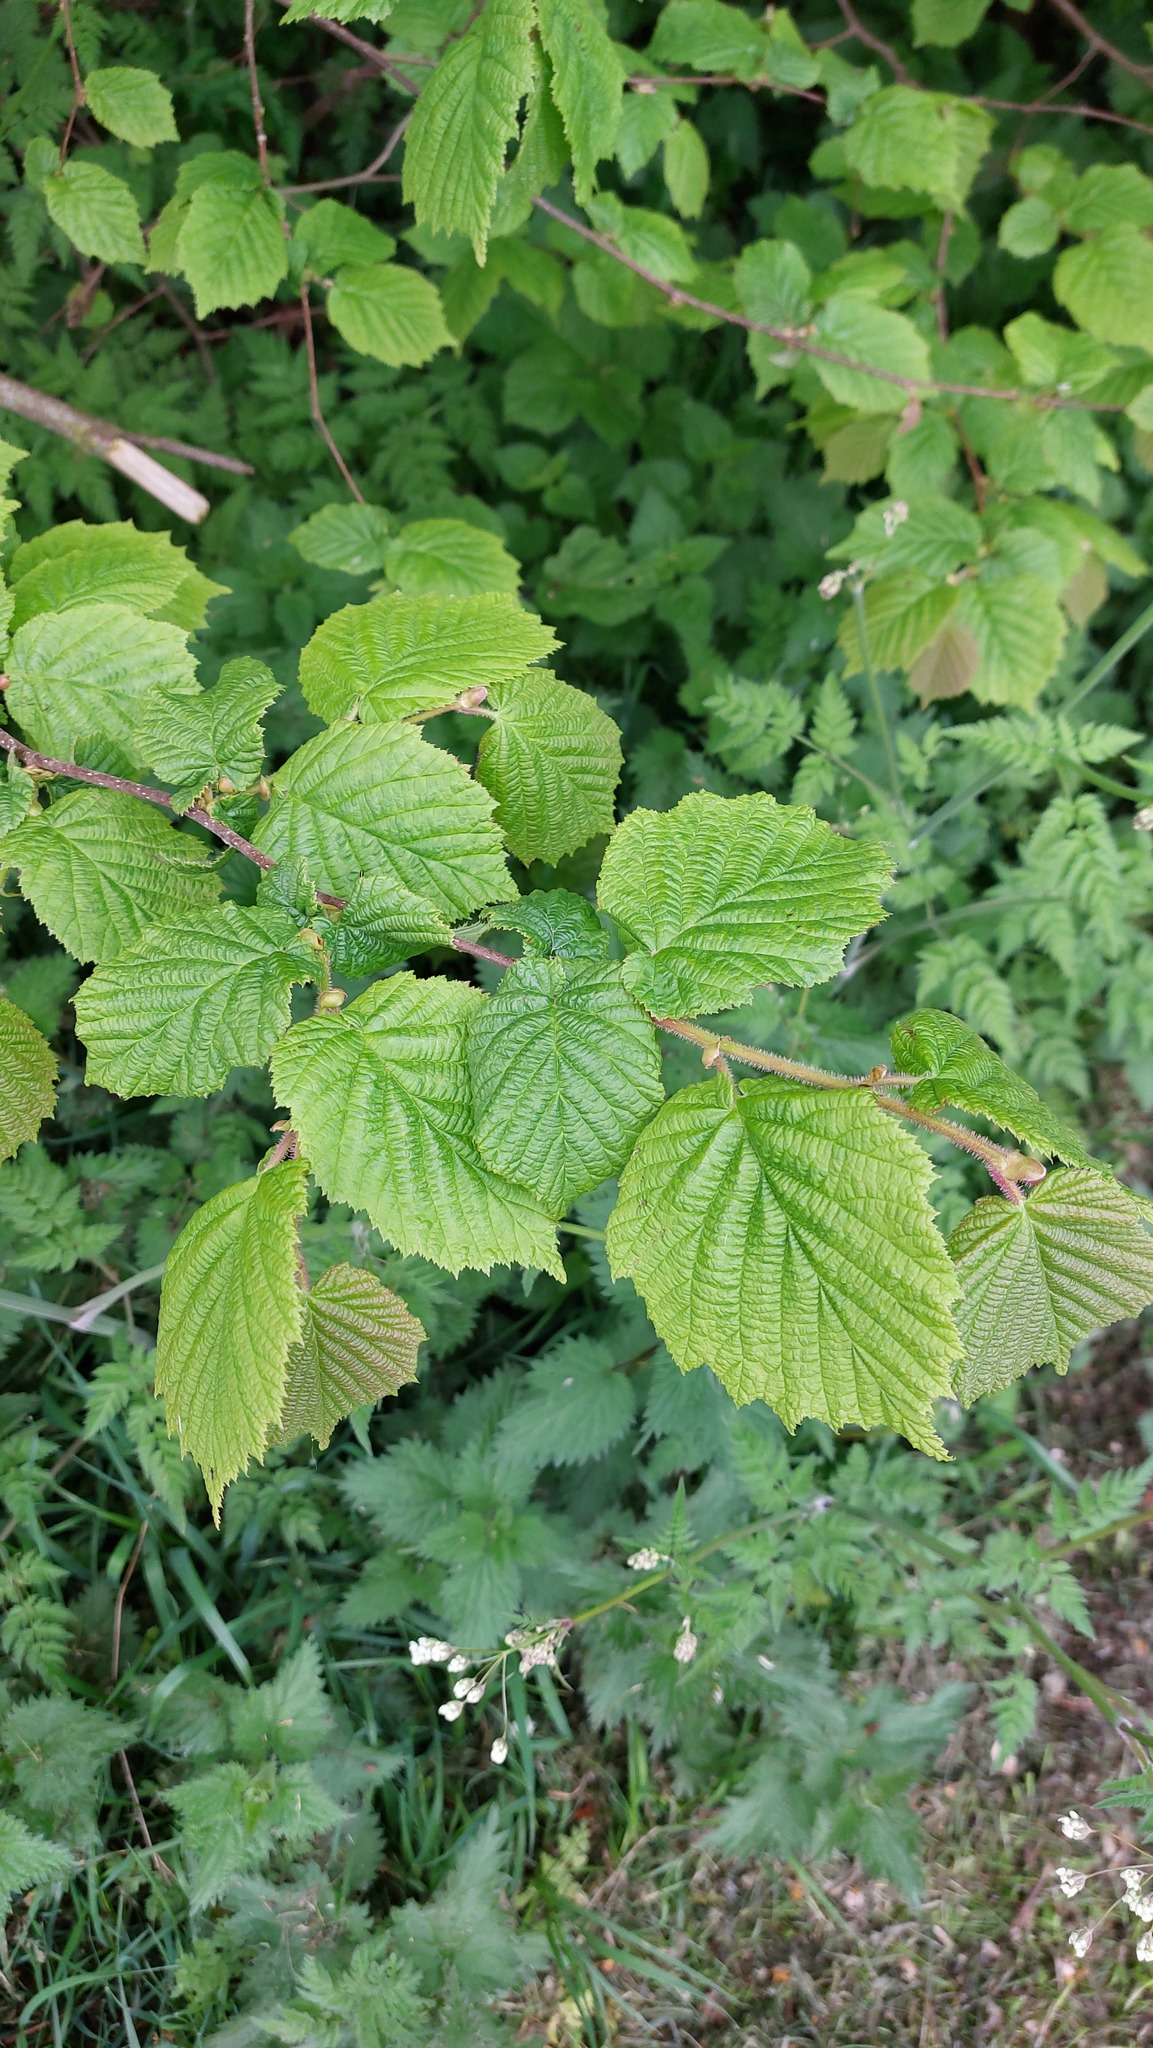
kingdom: Plantae
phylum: Tracheophyta
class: Magnoliopsida
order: Fagales
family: Betulaceae
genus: Corylus
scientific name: Corylus avellana
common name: European hazel
